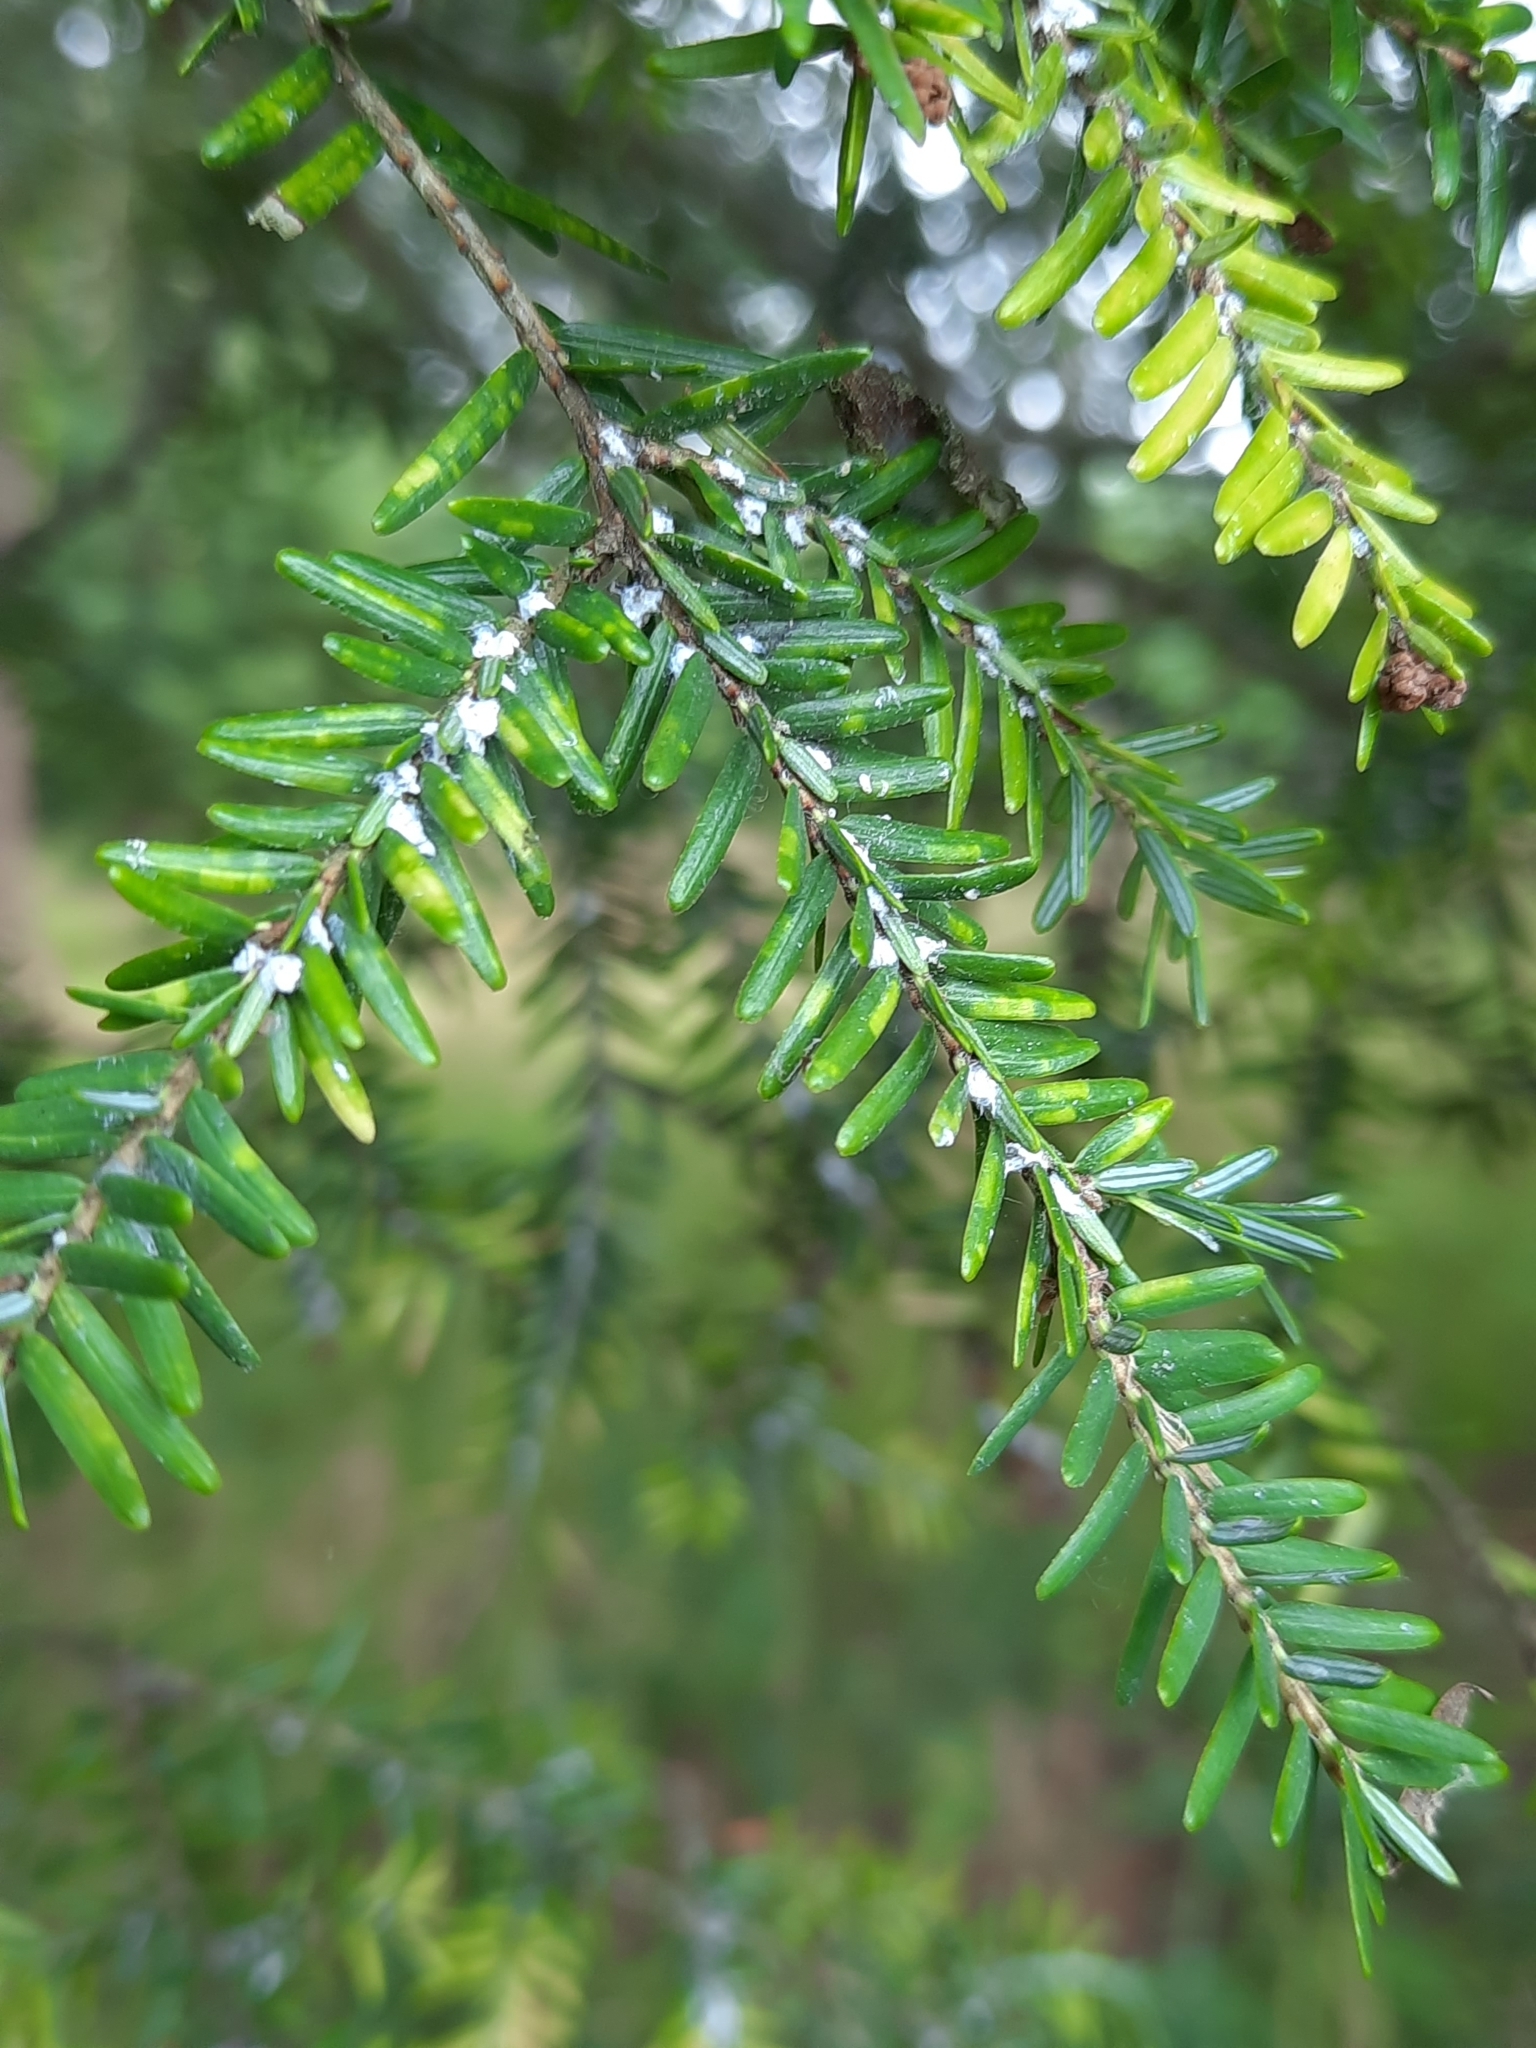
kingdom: Animalia
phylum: Arthropoda
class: Insecta
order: Hemiptera
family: Adelgidae
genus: Adelges
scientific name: Adelges tsugae
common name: Hemlock woolly adelgid
